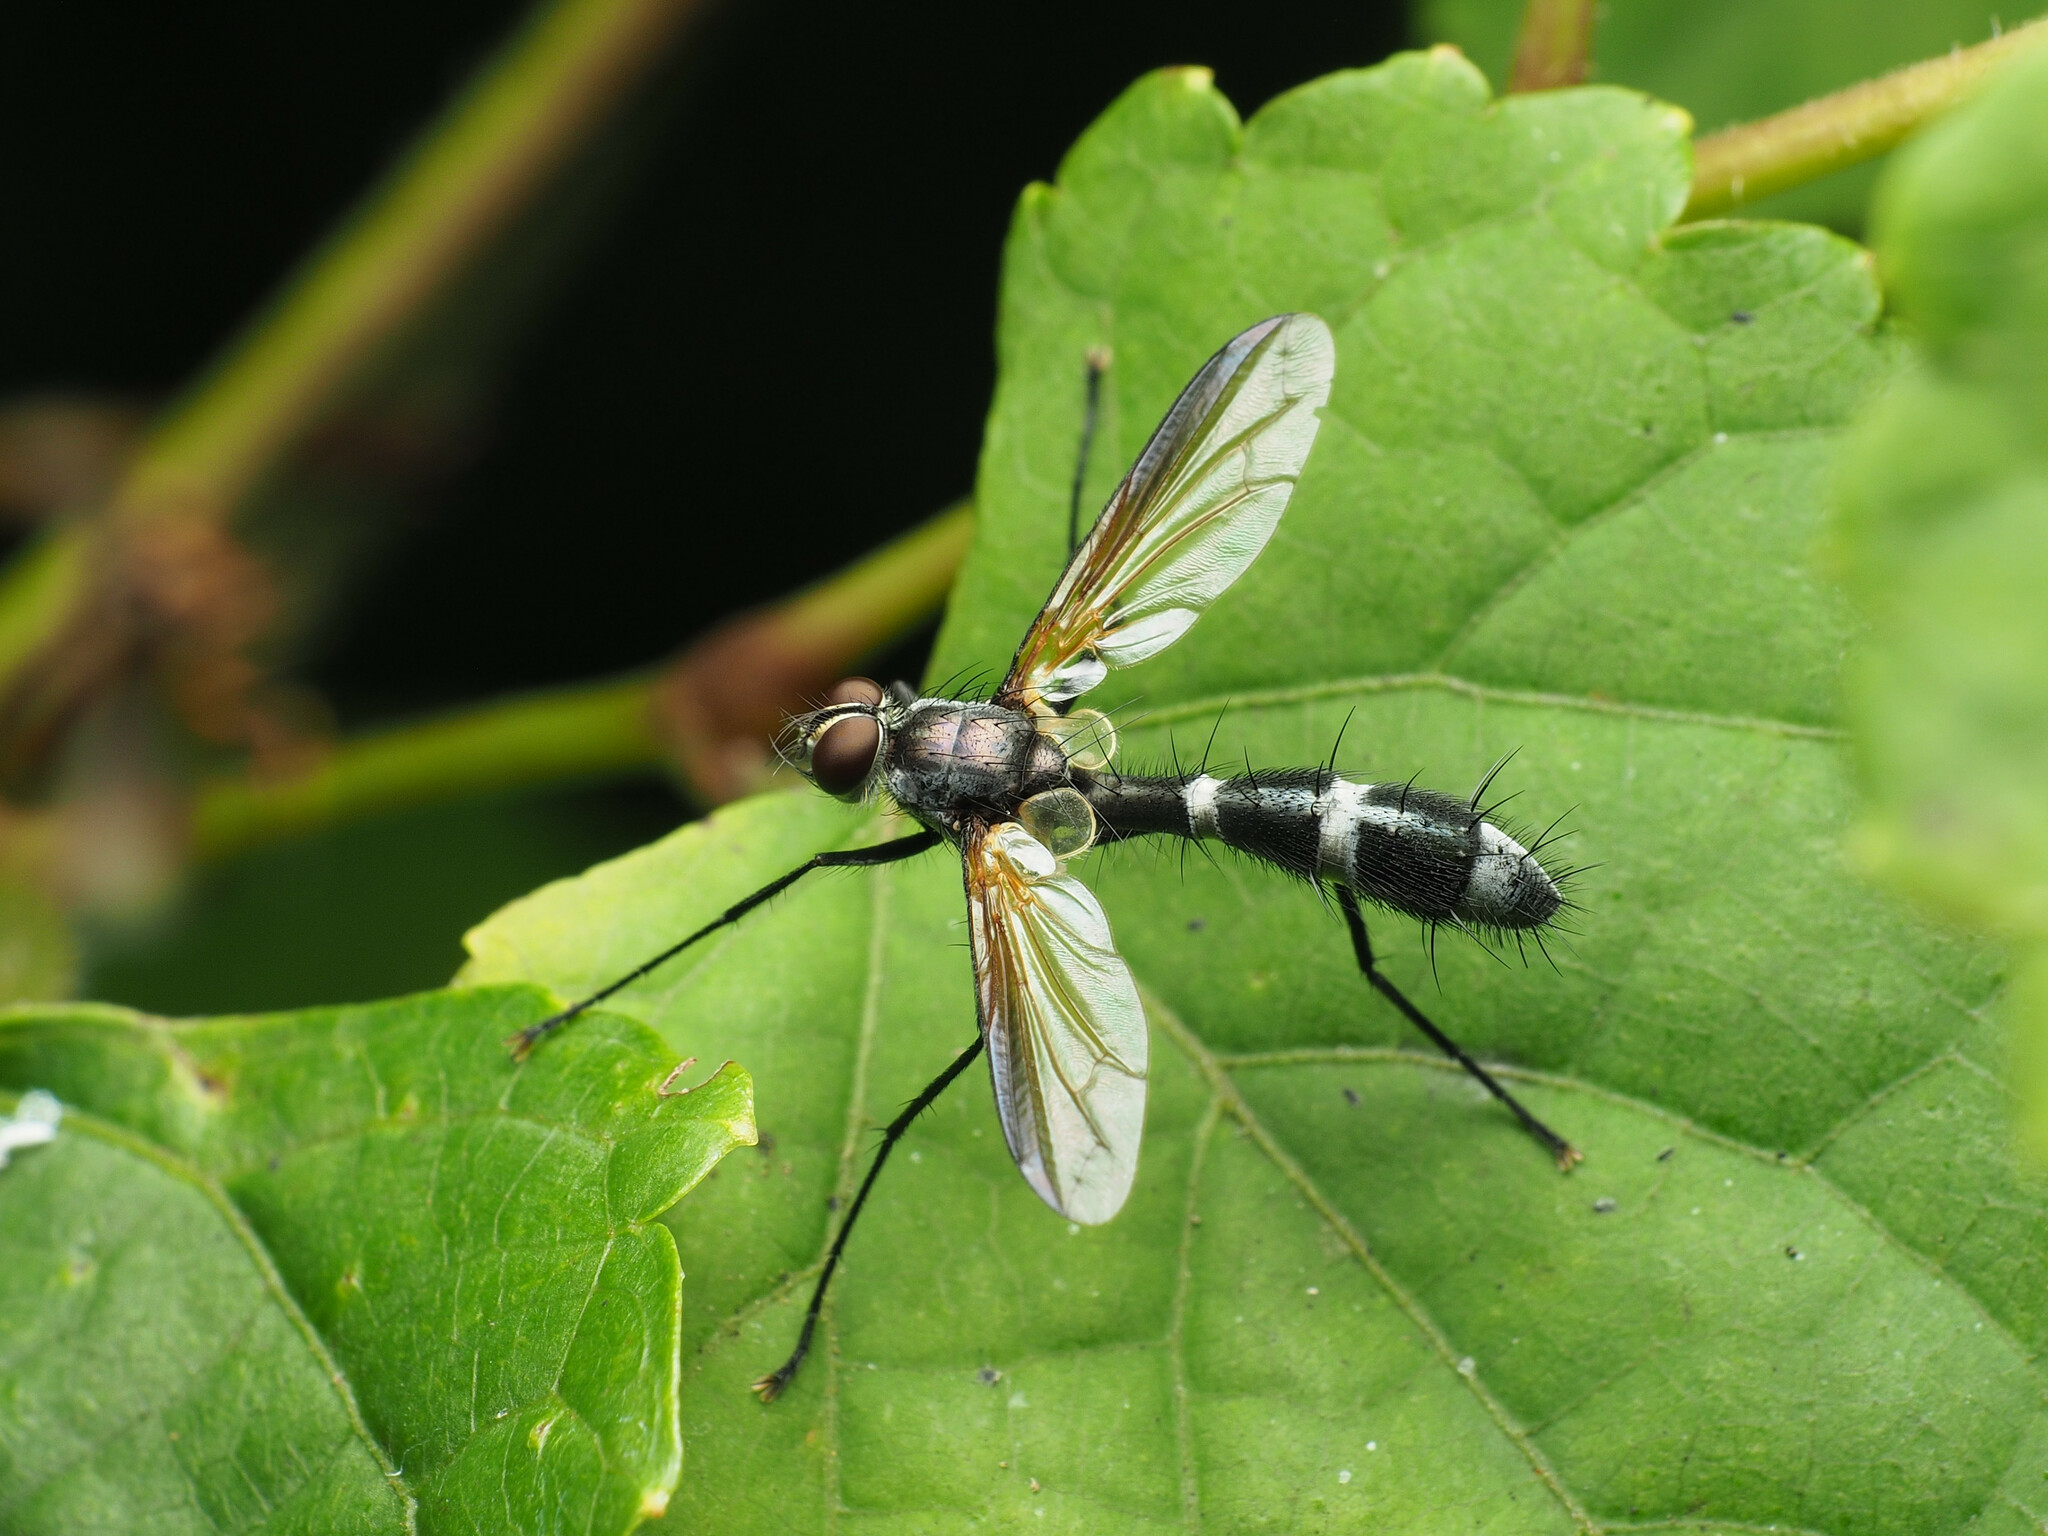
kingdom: Animalia
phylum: Arthropoda
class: Insecta
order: Diptera
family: Tachinidae
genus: Cordyligaster
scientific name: Cordyligaster septentrionalis
